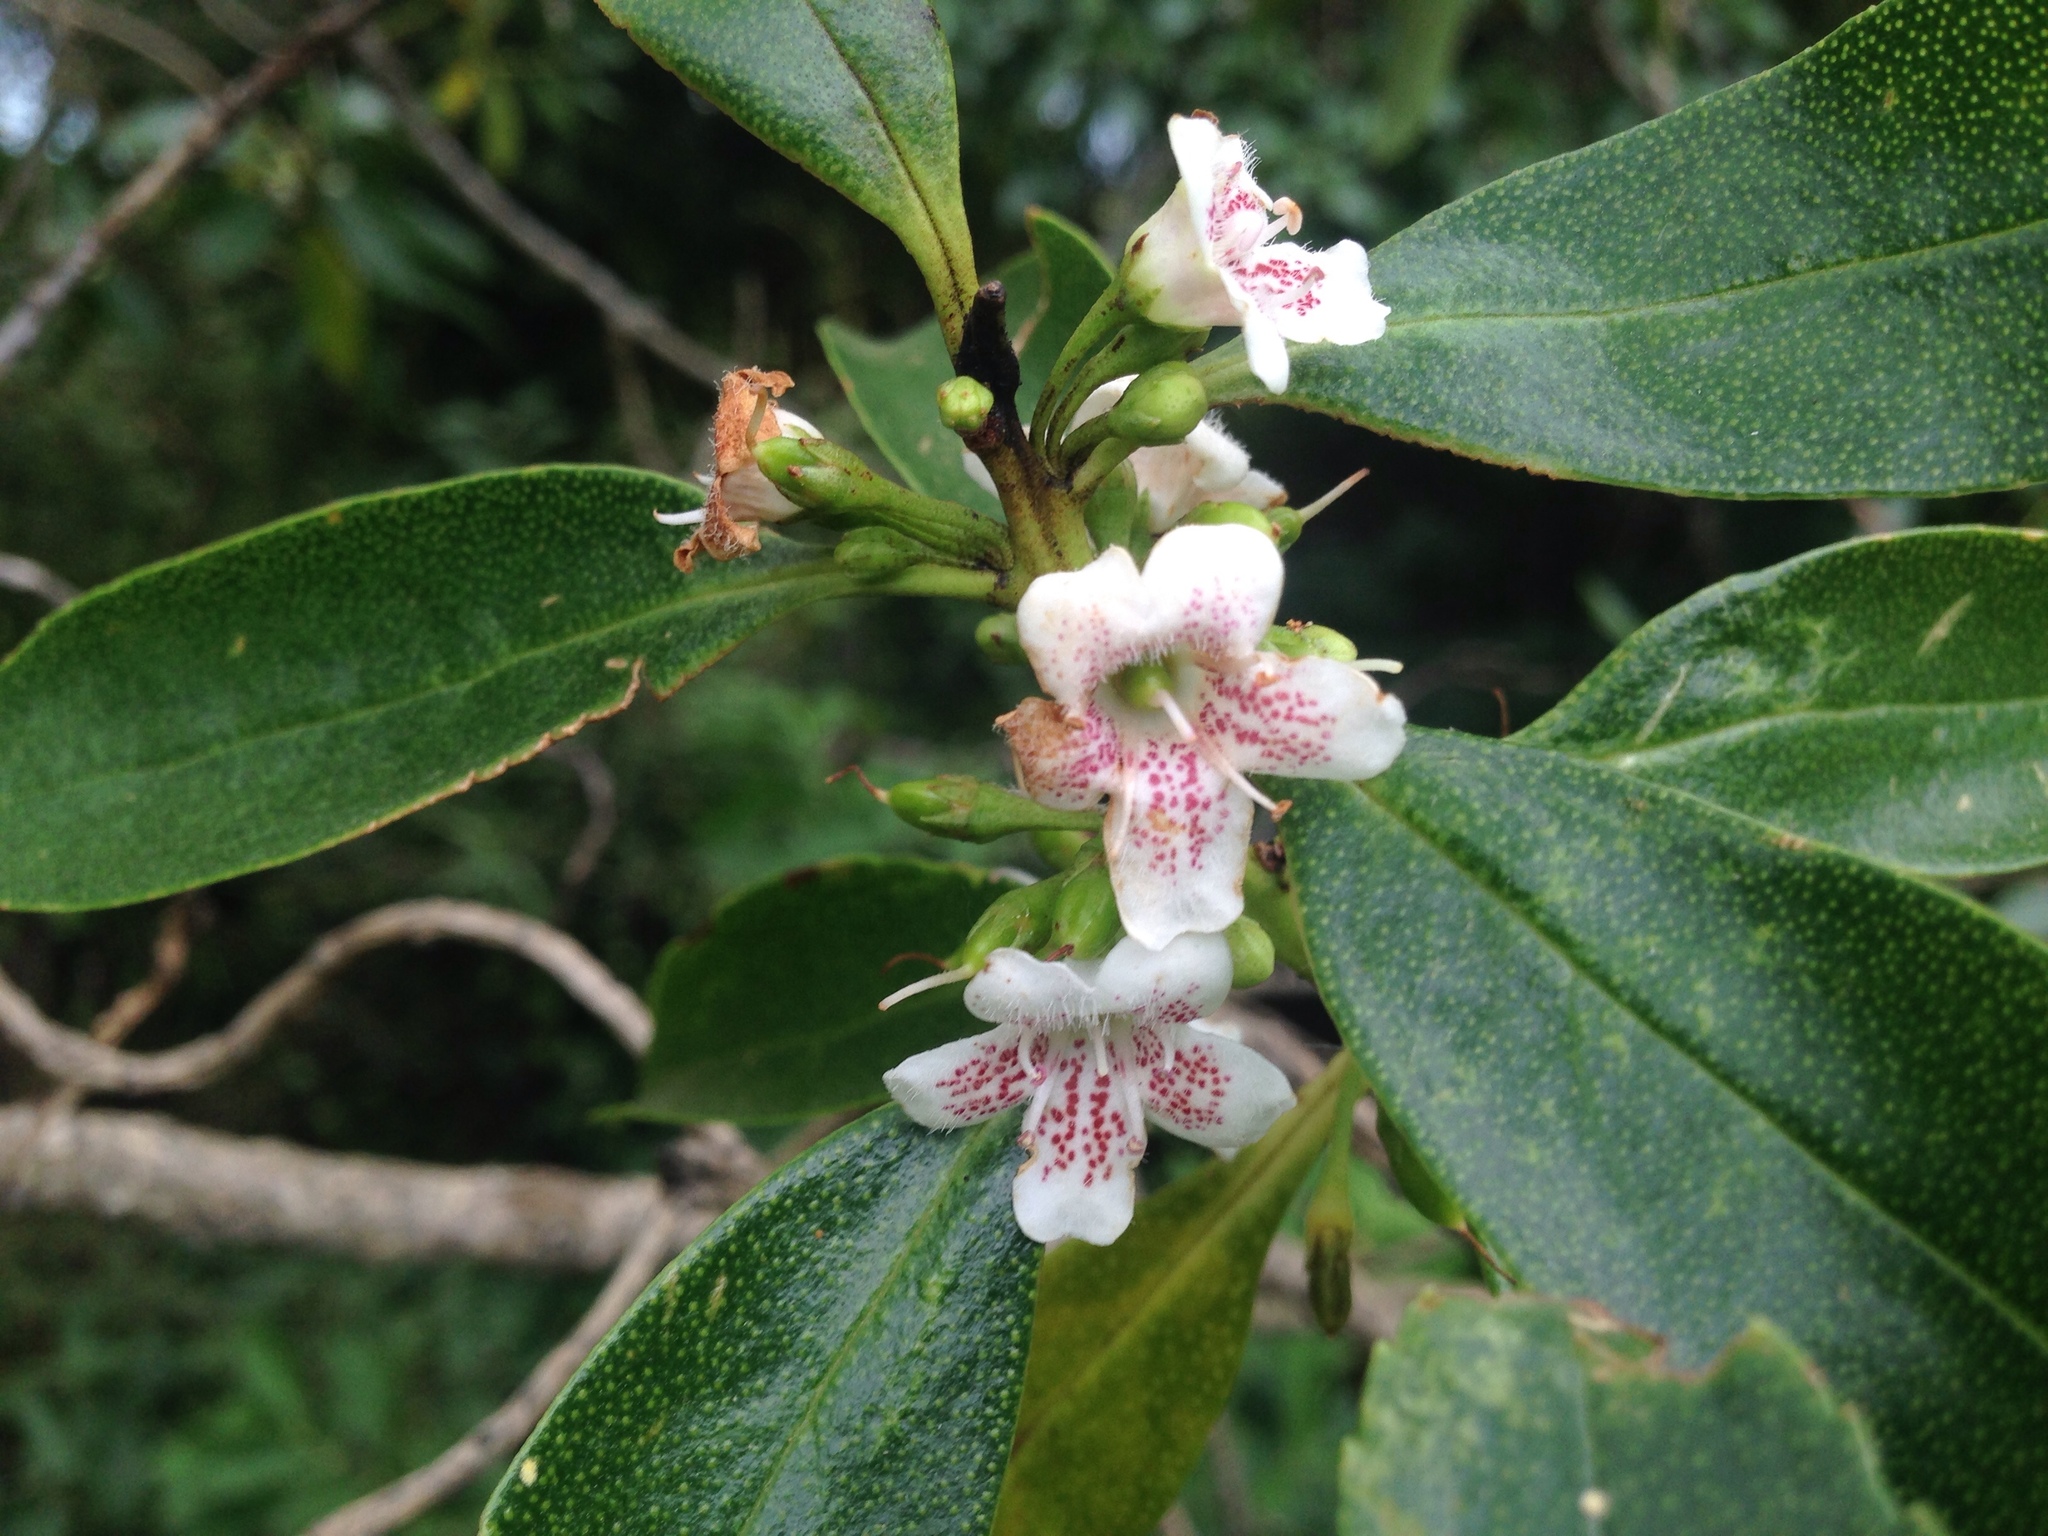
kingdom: Plantae
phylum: Tracheophyta
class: Magnoliopsida
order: Lamiales
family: Scrophulariaceae
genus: Myoporum
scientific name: Myoporum laetum
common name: Ngaio tree
